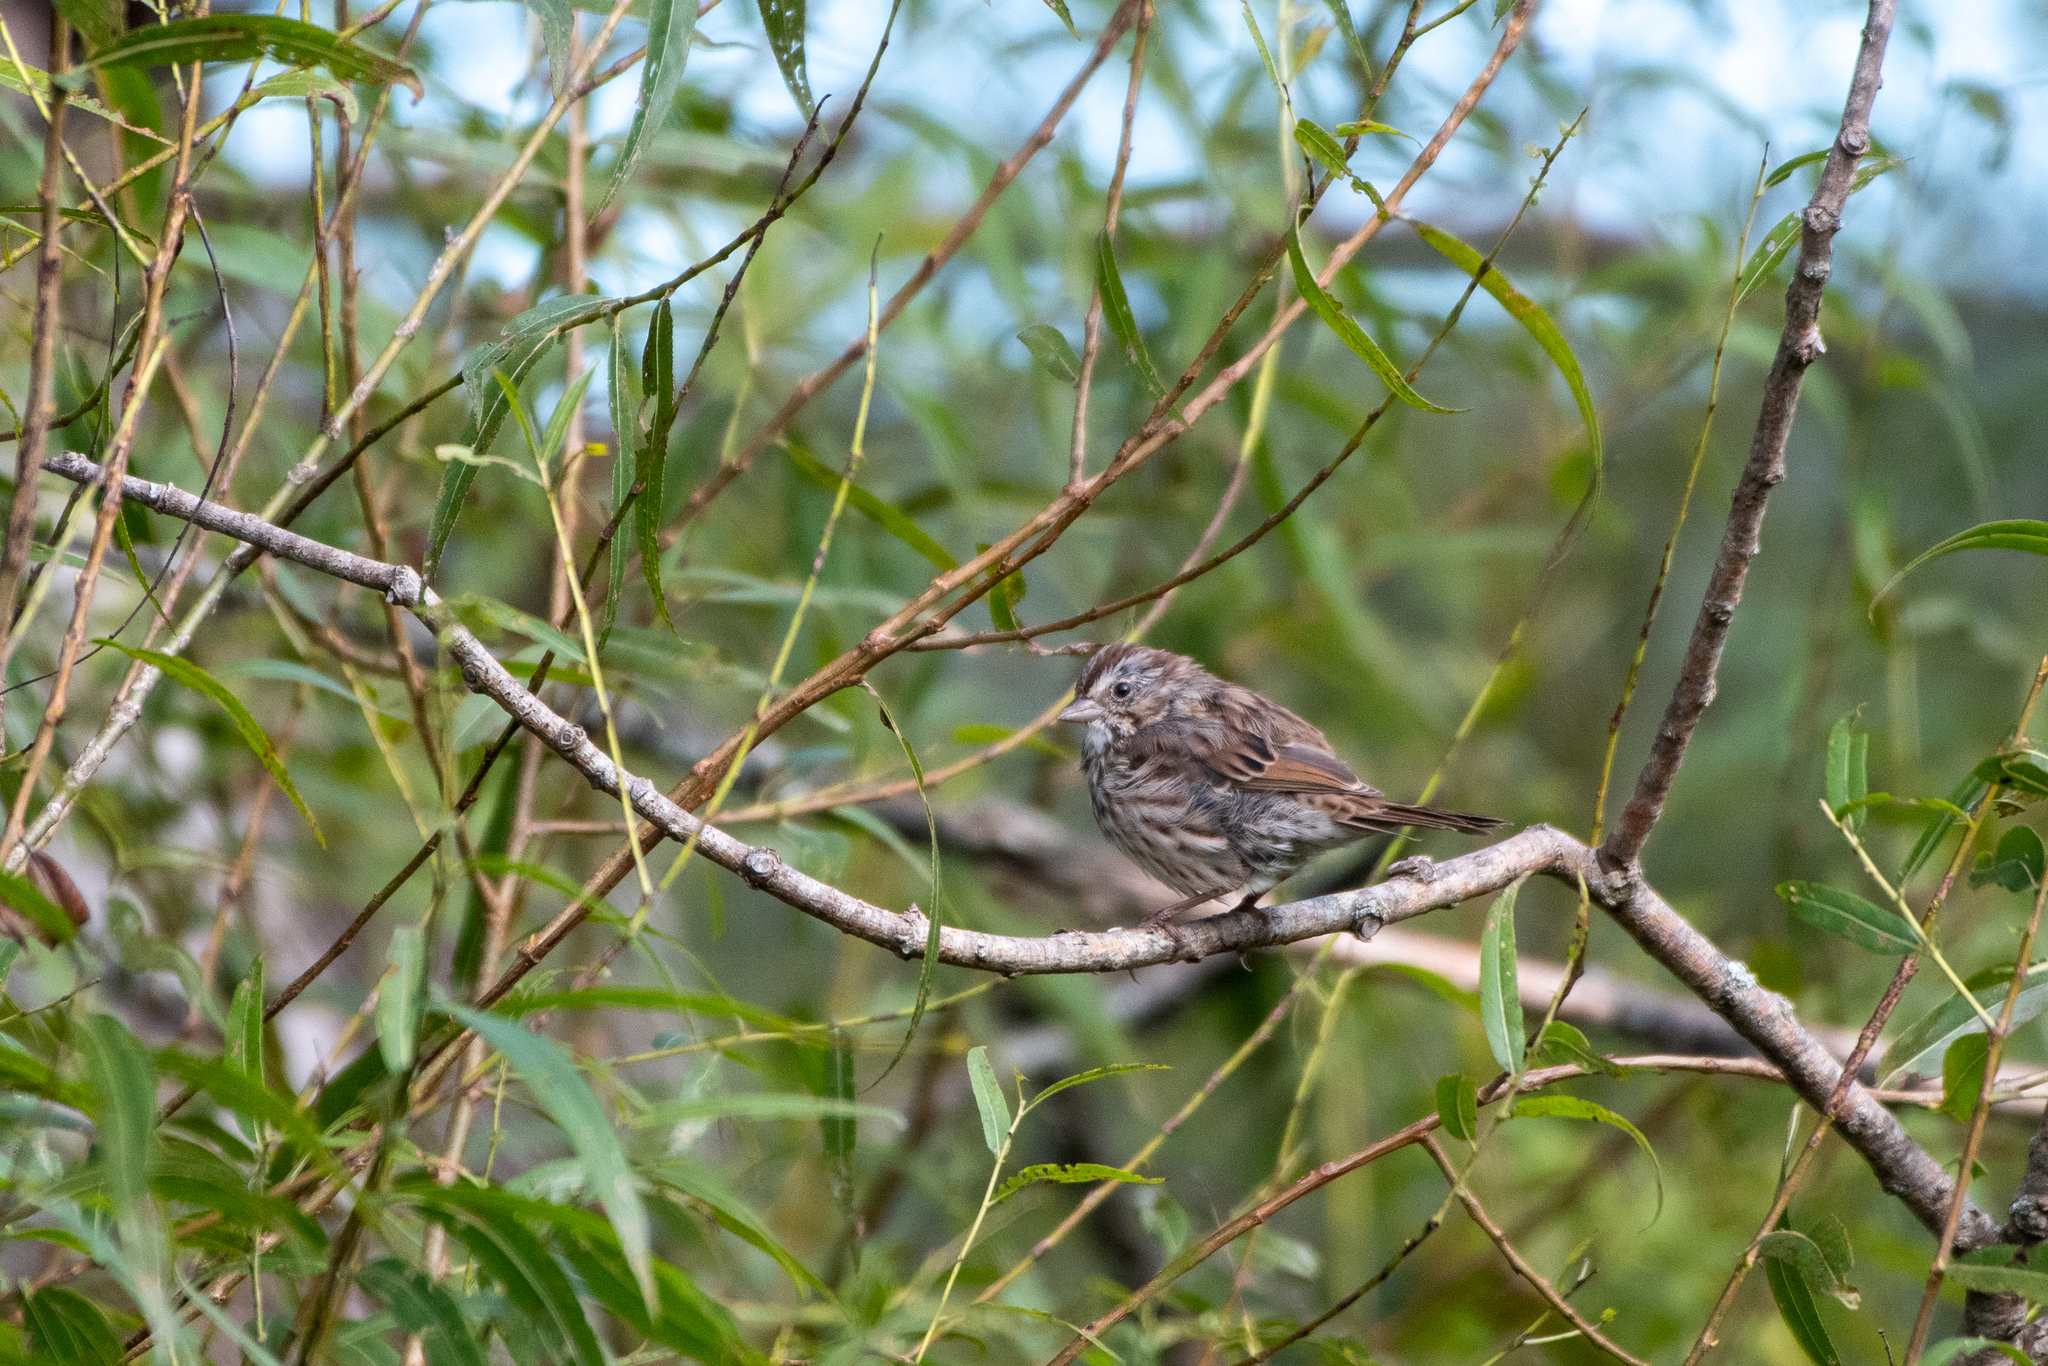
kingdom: Animalia
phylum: Chordata
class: Aves
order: Passeriformes
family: Passerellidae
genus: Melospiza
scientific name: Melospiza melodia
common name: Song sparrow
